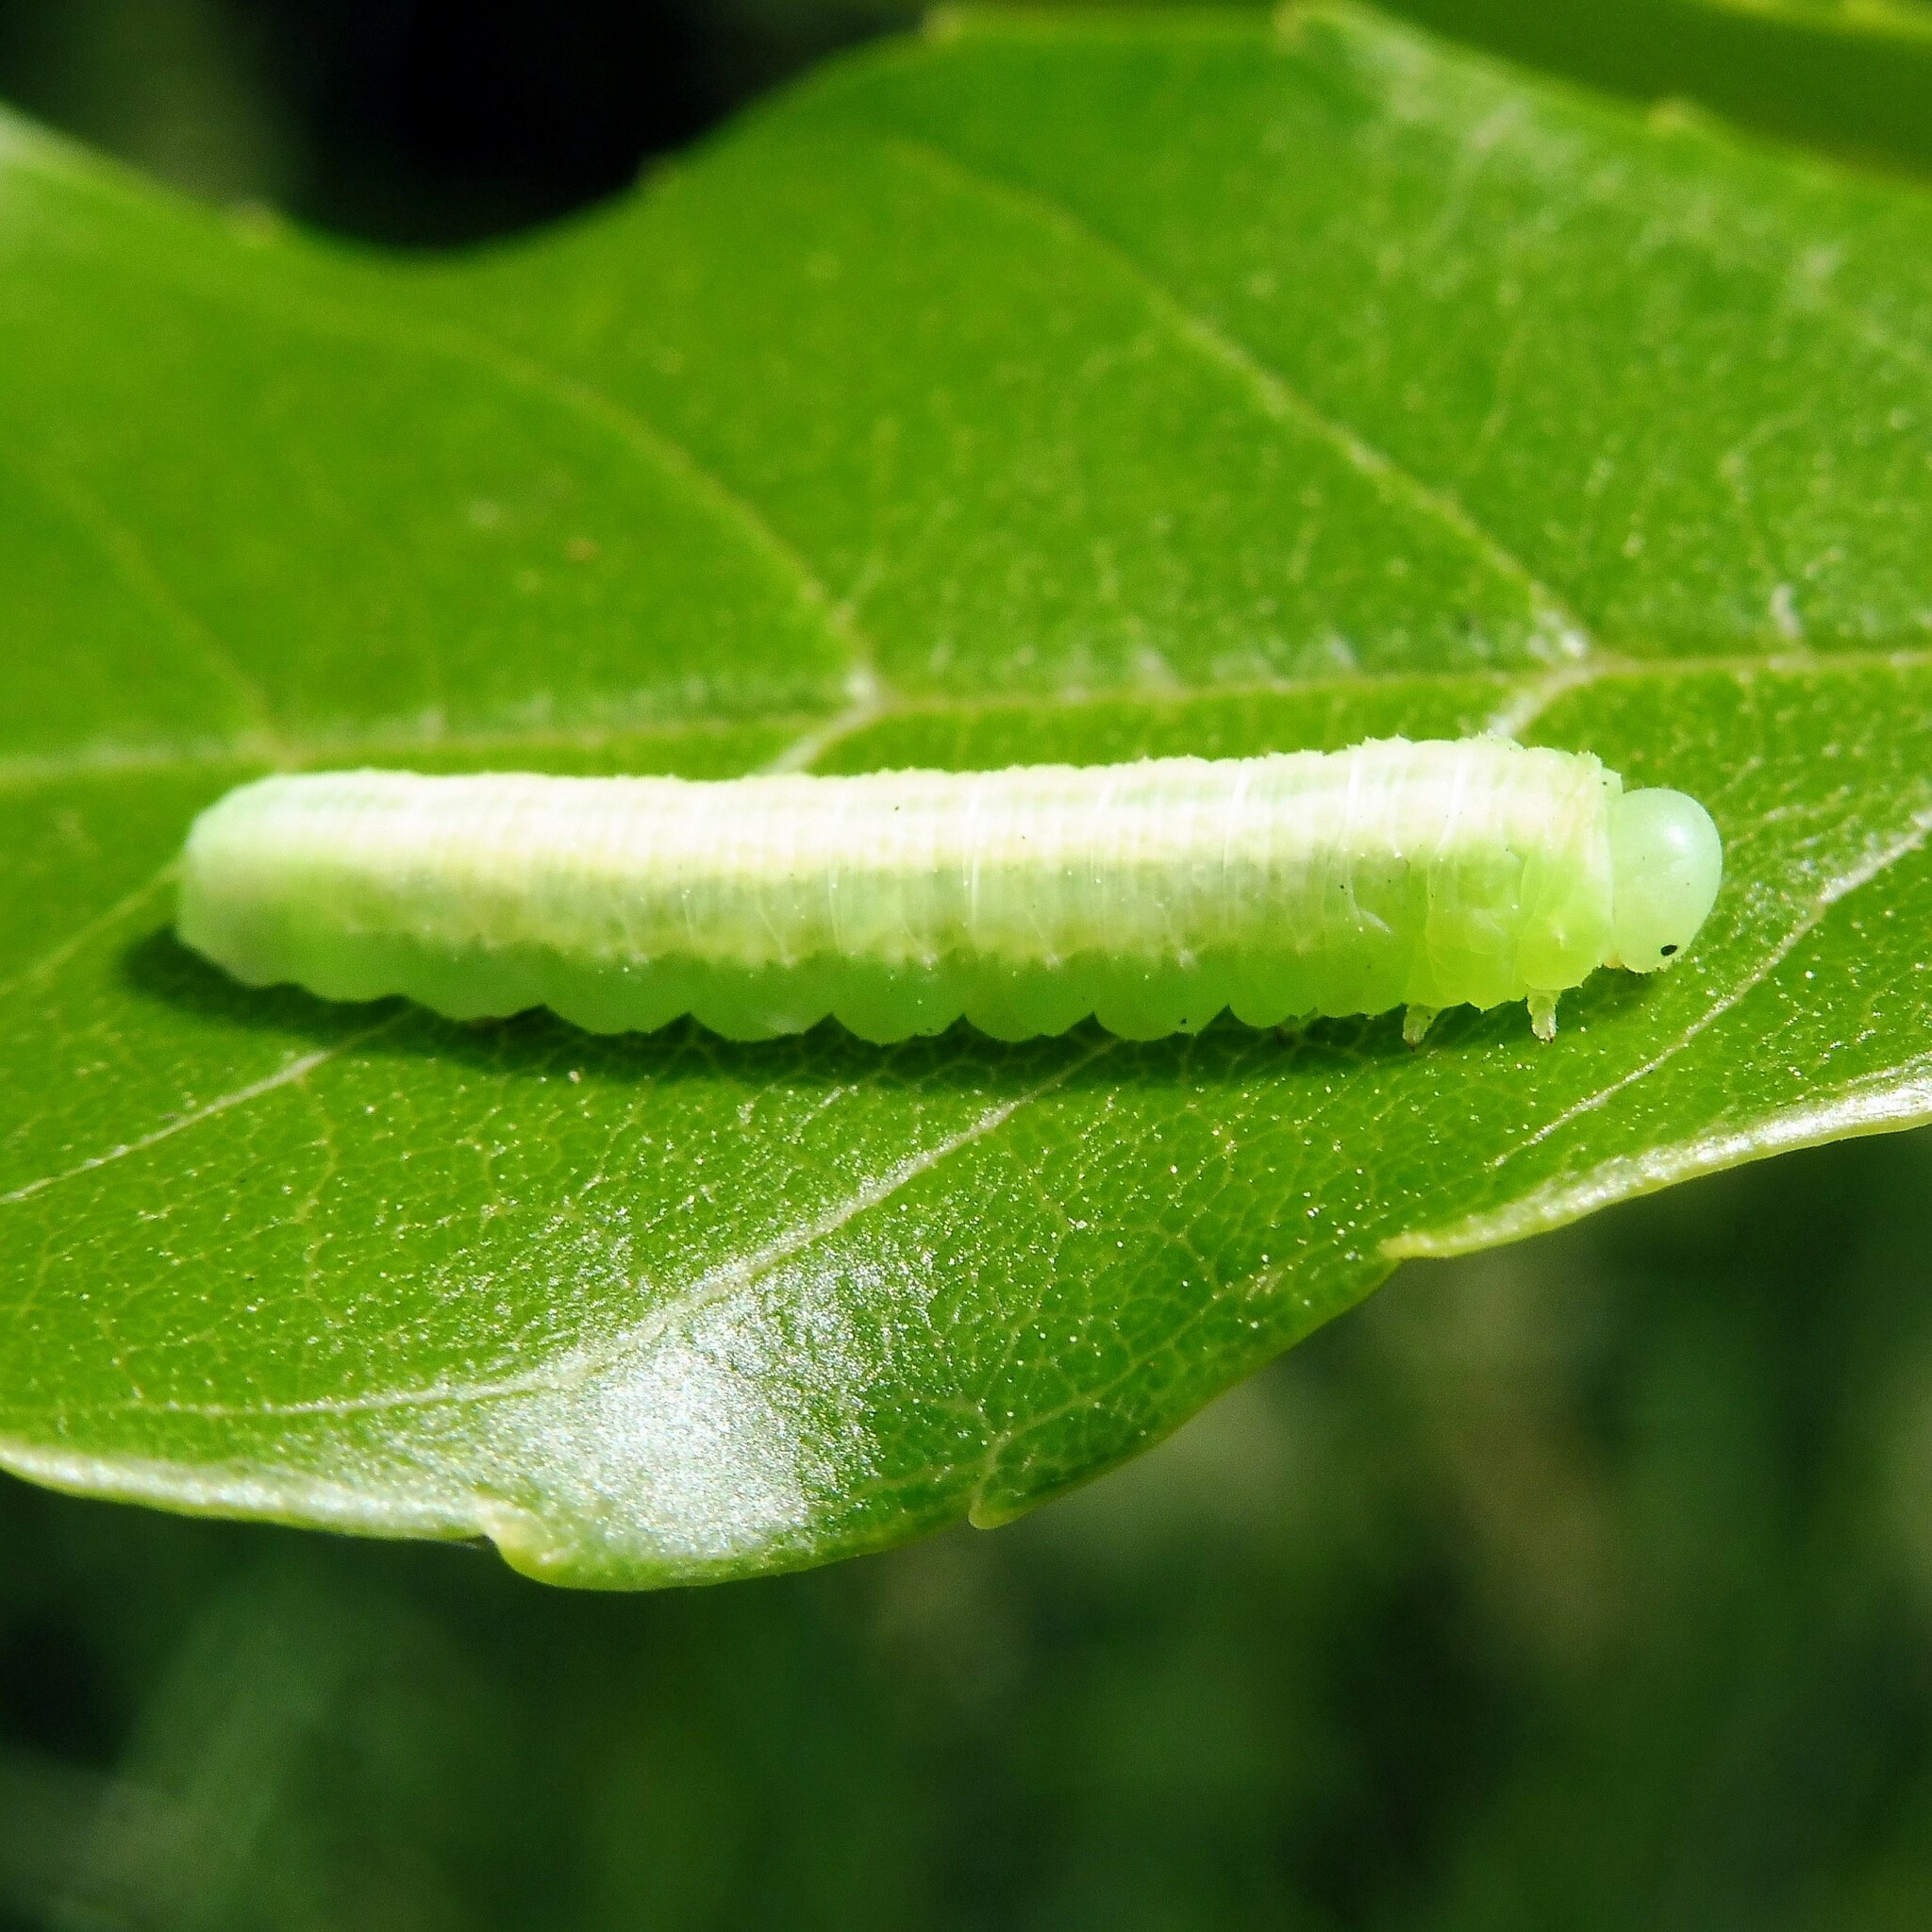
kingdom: Animalia
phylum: Arthropoda
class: Insecta
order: Hymenoptera
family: Tenthredinidae
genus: Tomostethus
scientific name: Tomostethus nigritus
